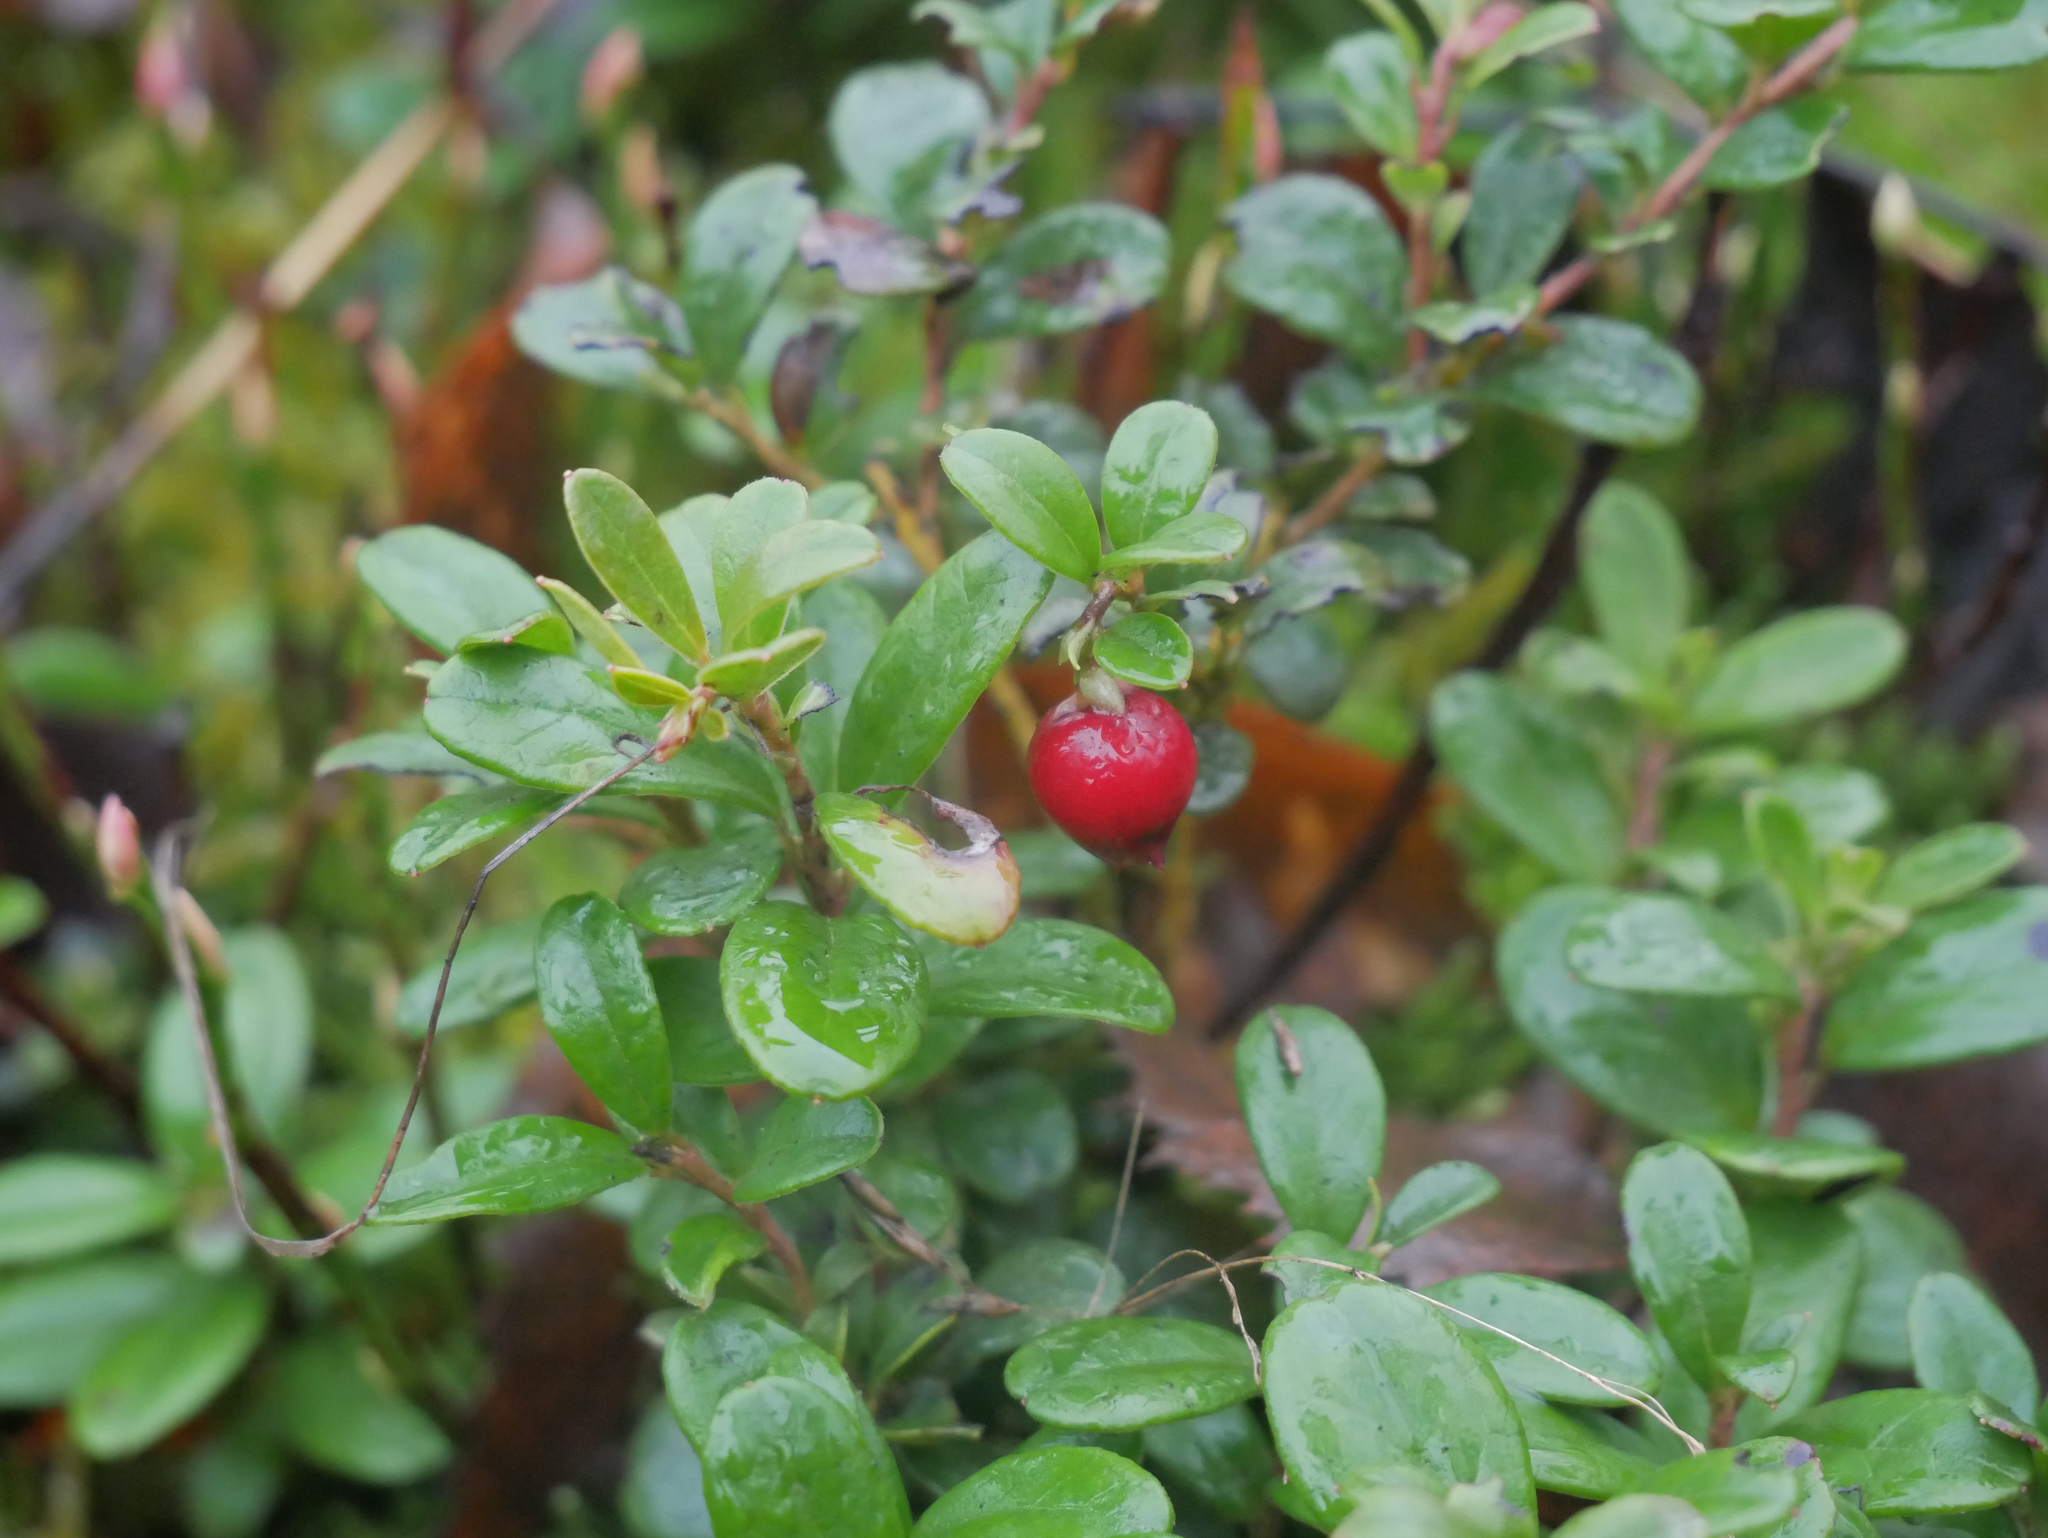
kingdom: Plantae
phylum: Tracheophyta
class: Magnoliopsida
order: Ericales
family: Ericaceae
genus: Vaccinium
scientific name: Vaccinium vitis-idaea
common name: Cowberry
